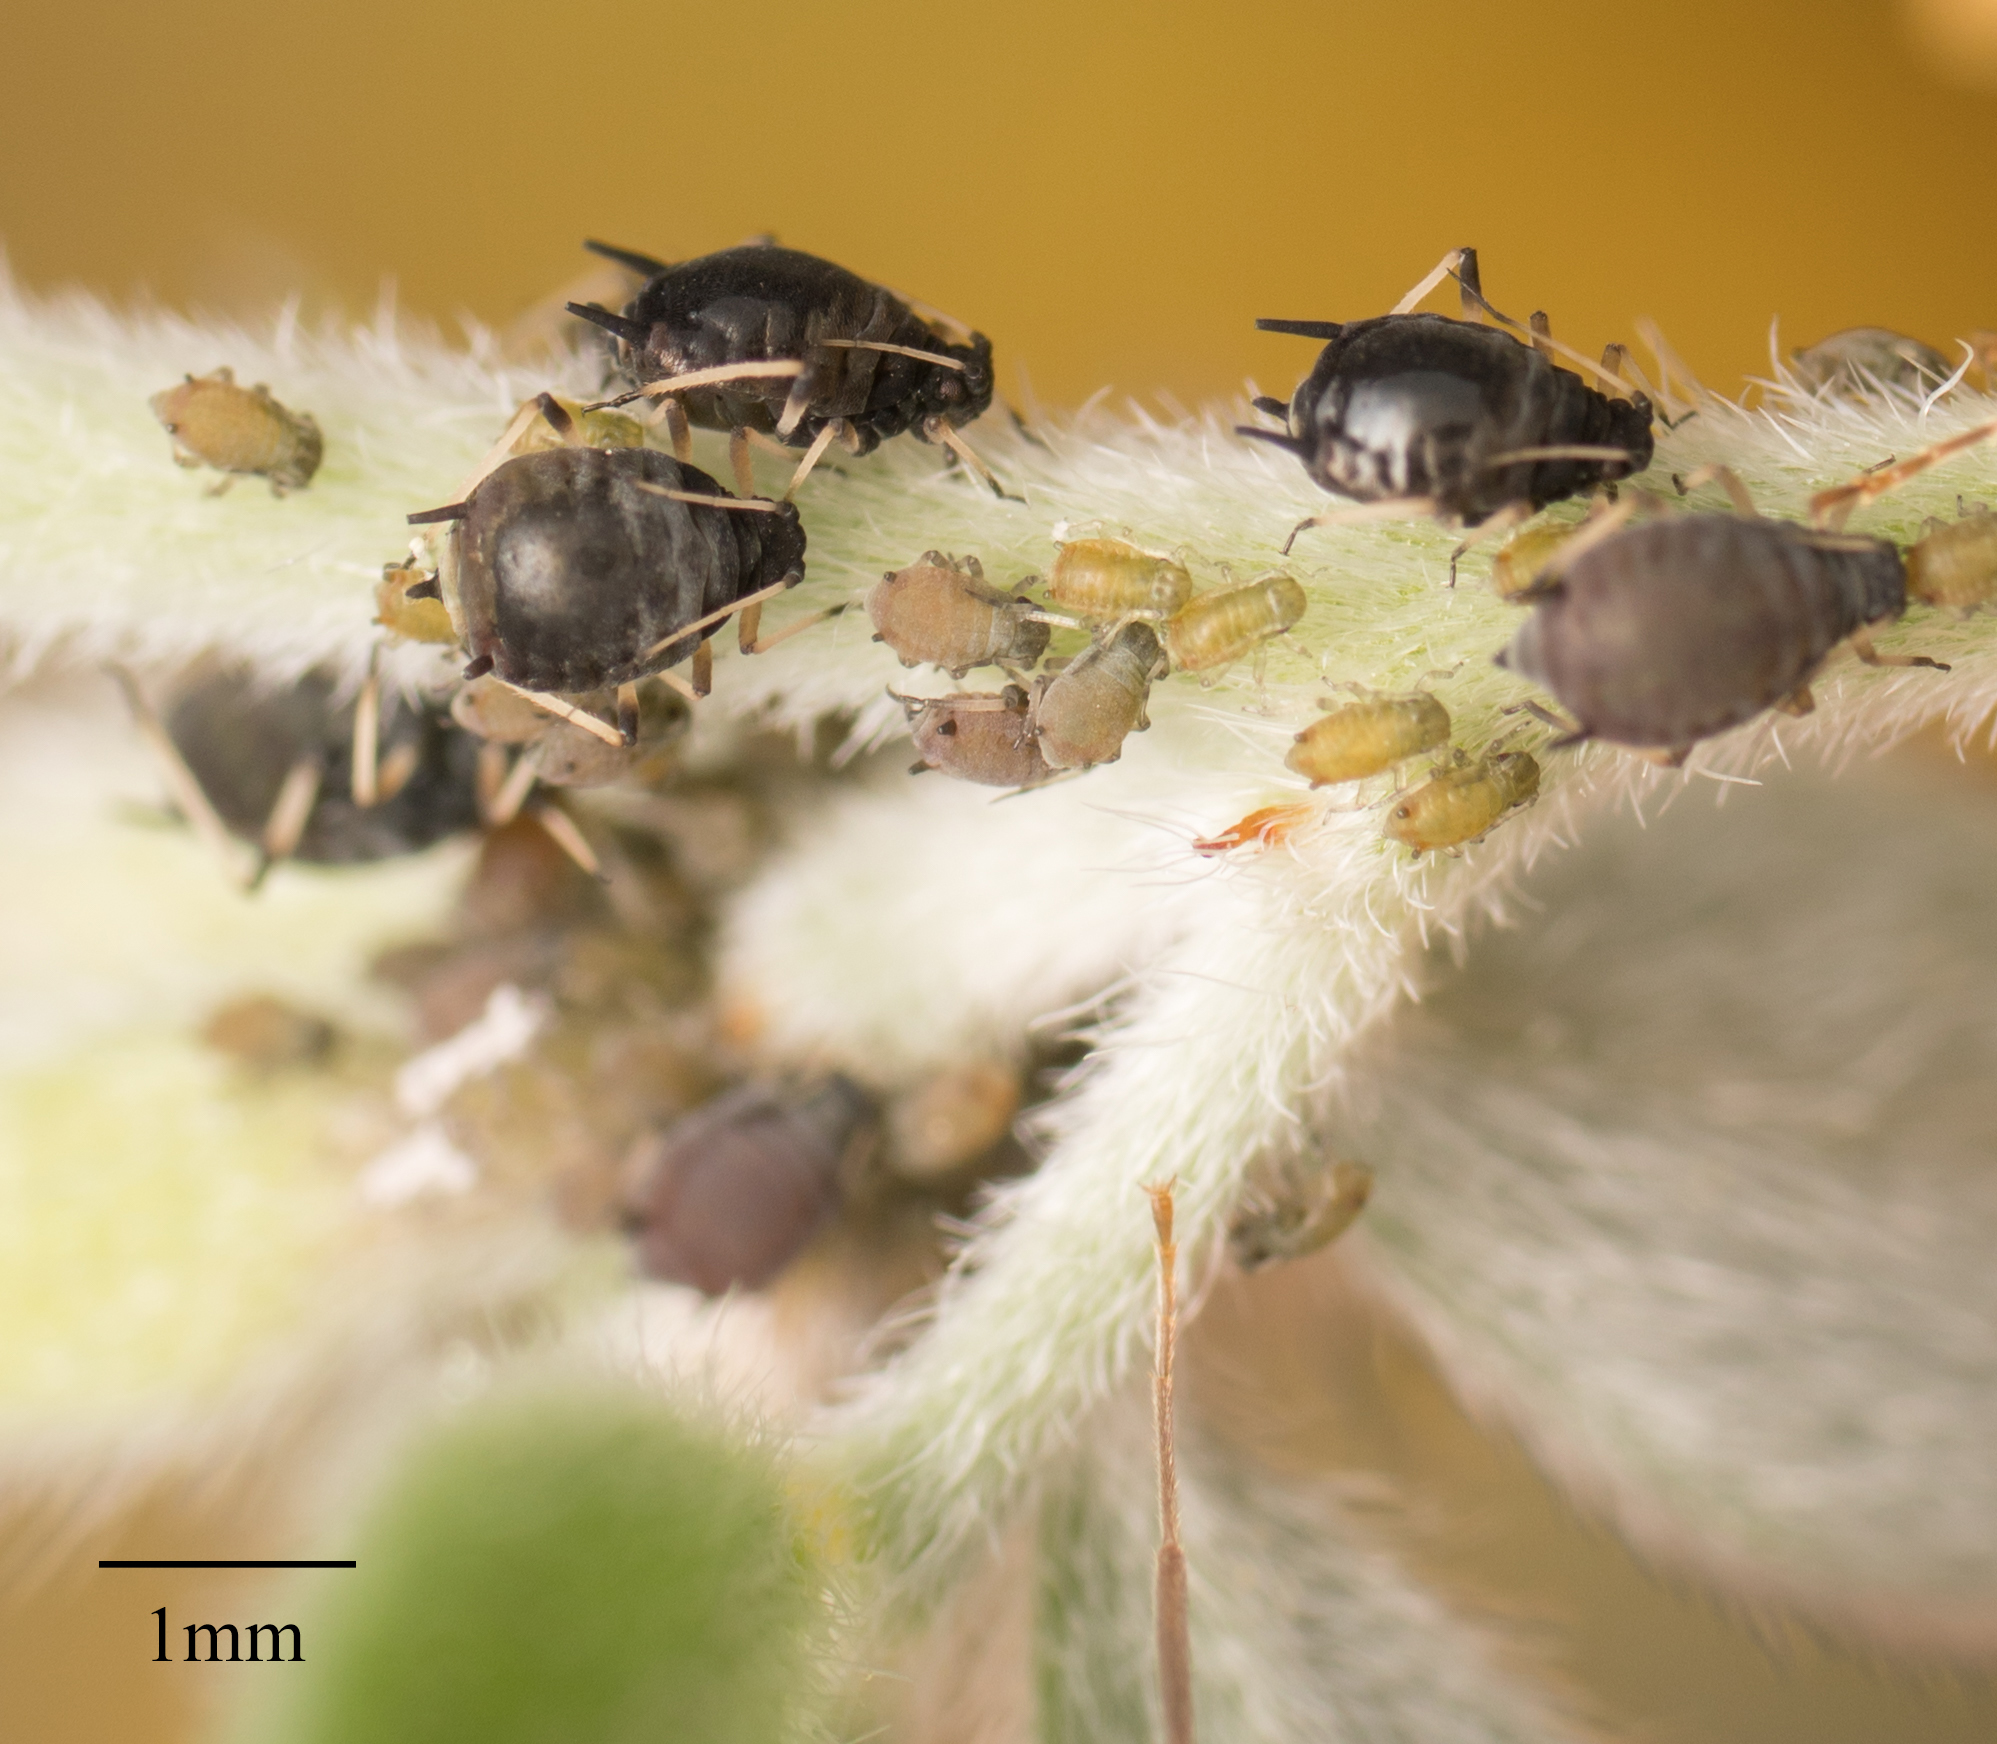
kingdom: Animalia
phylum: Arthropoda
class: Insecta
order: Hemiptera
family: Aphididae
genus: Aphis
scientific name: Aphis craccivora
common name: Cowpea aphid
